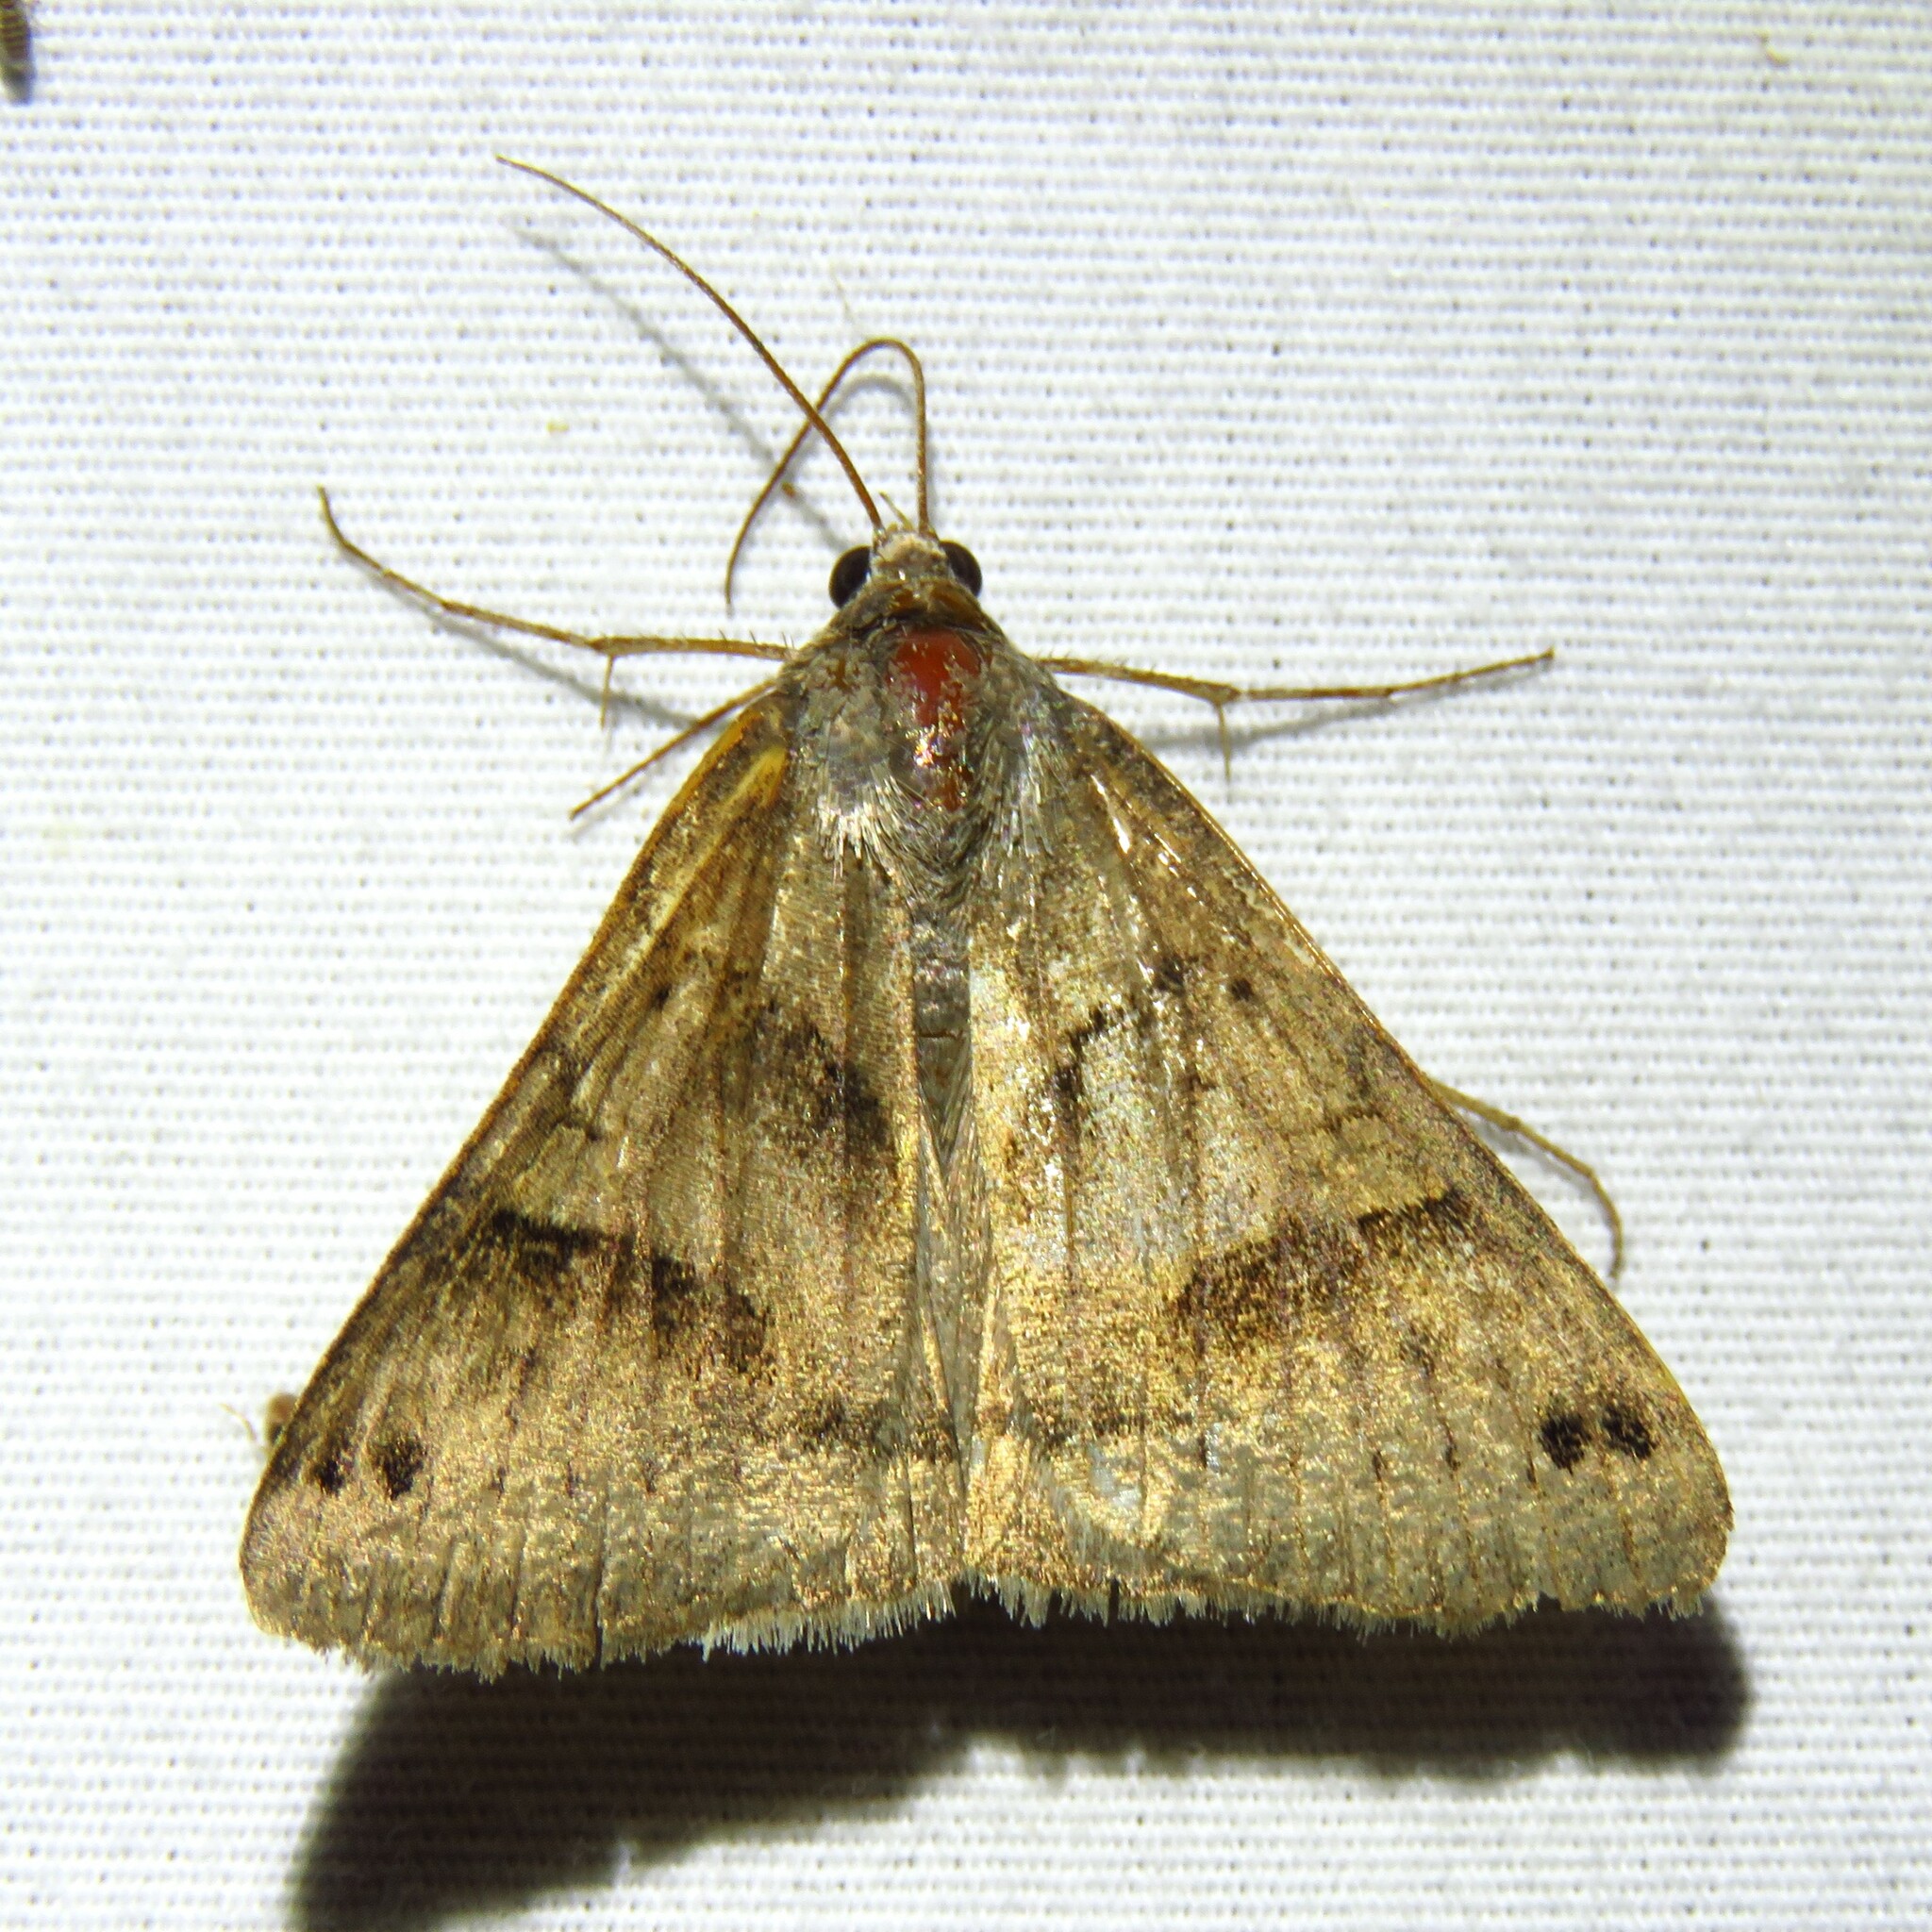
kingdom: Animalia
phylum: Arthropoda
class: Insecta
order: Lepidoptera
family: Erebidae
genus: Caenurgina
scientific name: Caenurgina erechtea
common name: Forage looper moth
